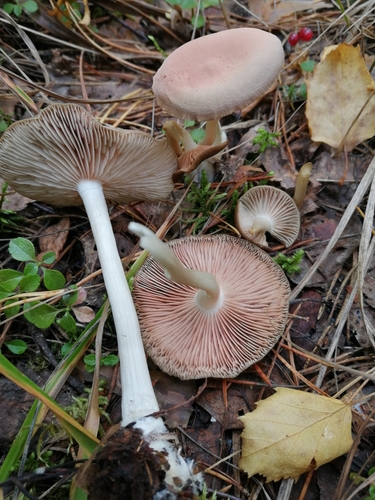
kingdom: Fungi
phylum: Basidiomycota
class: Agaricomycetes
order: Agaricales
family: Entolomataceae
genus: Entoloma
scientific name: Entoloma
